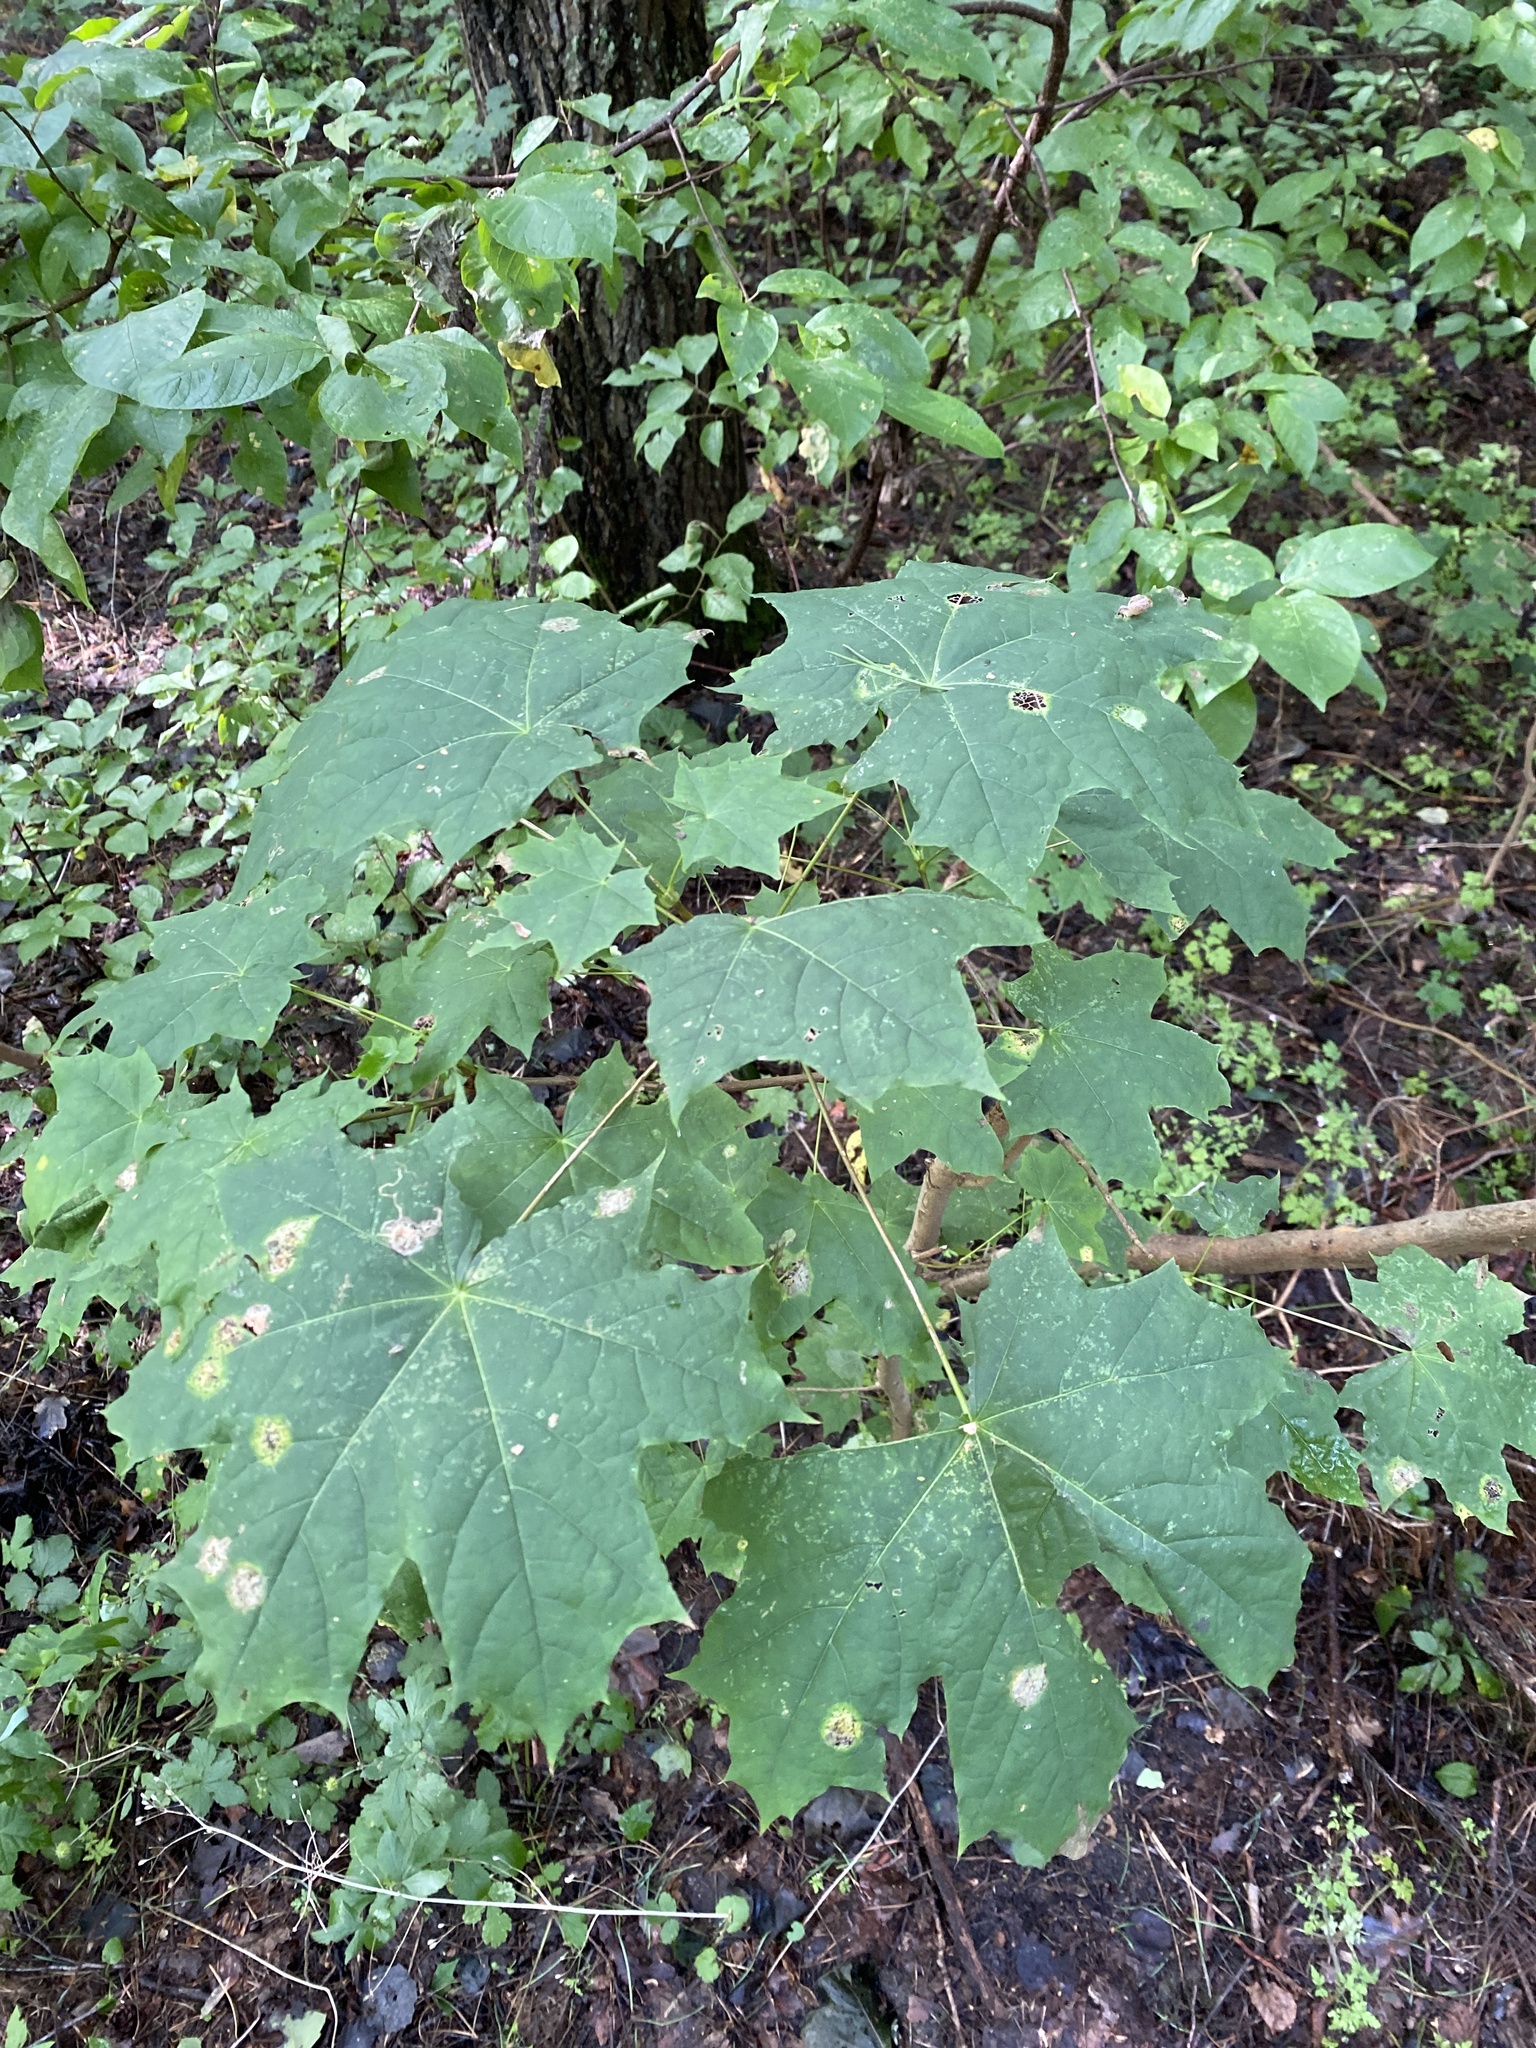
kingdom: Plantae
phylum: Tracheophyta
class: Magnoliopsida
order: Sapindales
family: Sapindaceae
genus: Acer
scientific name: Acer platanoides
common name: Norway maple
